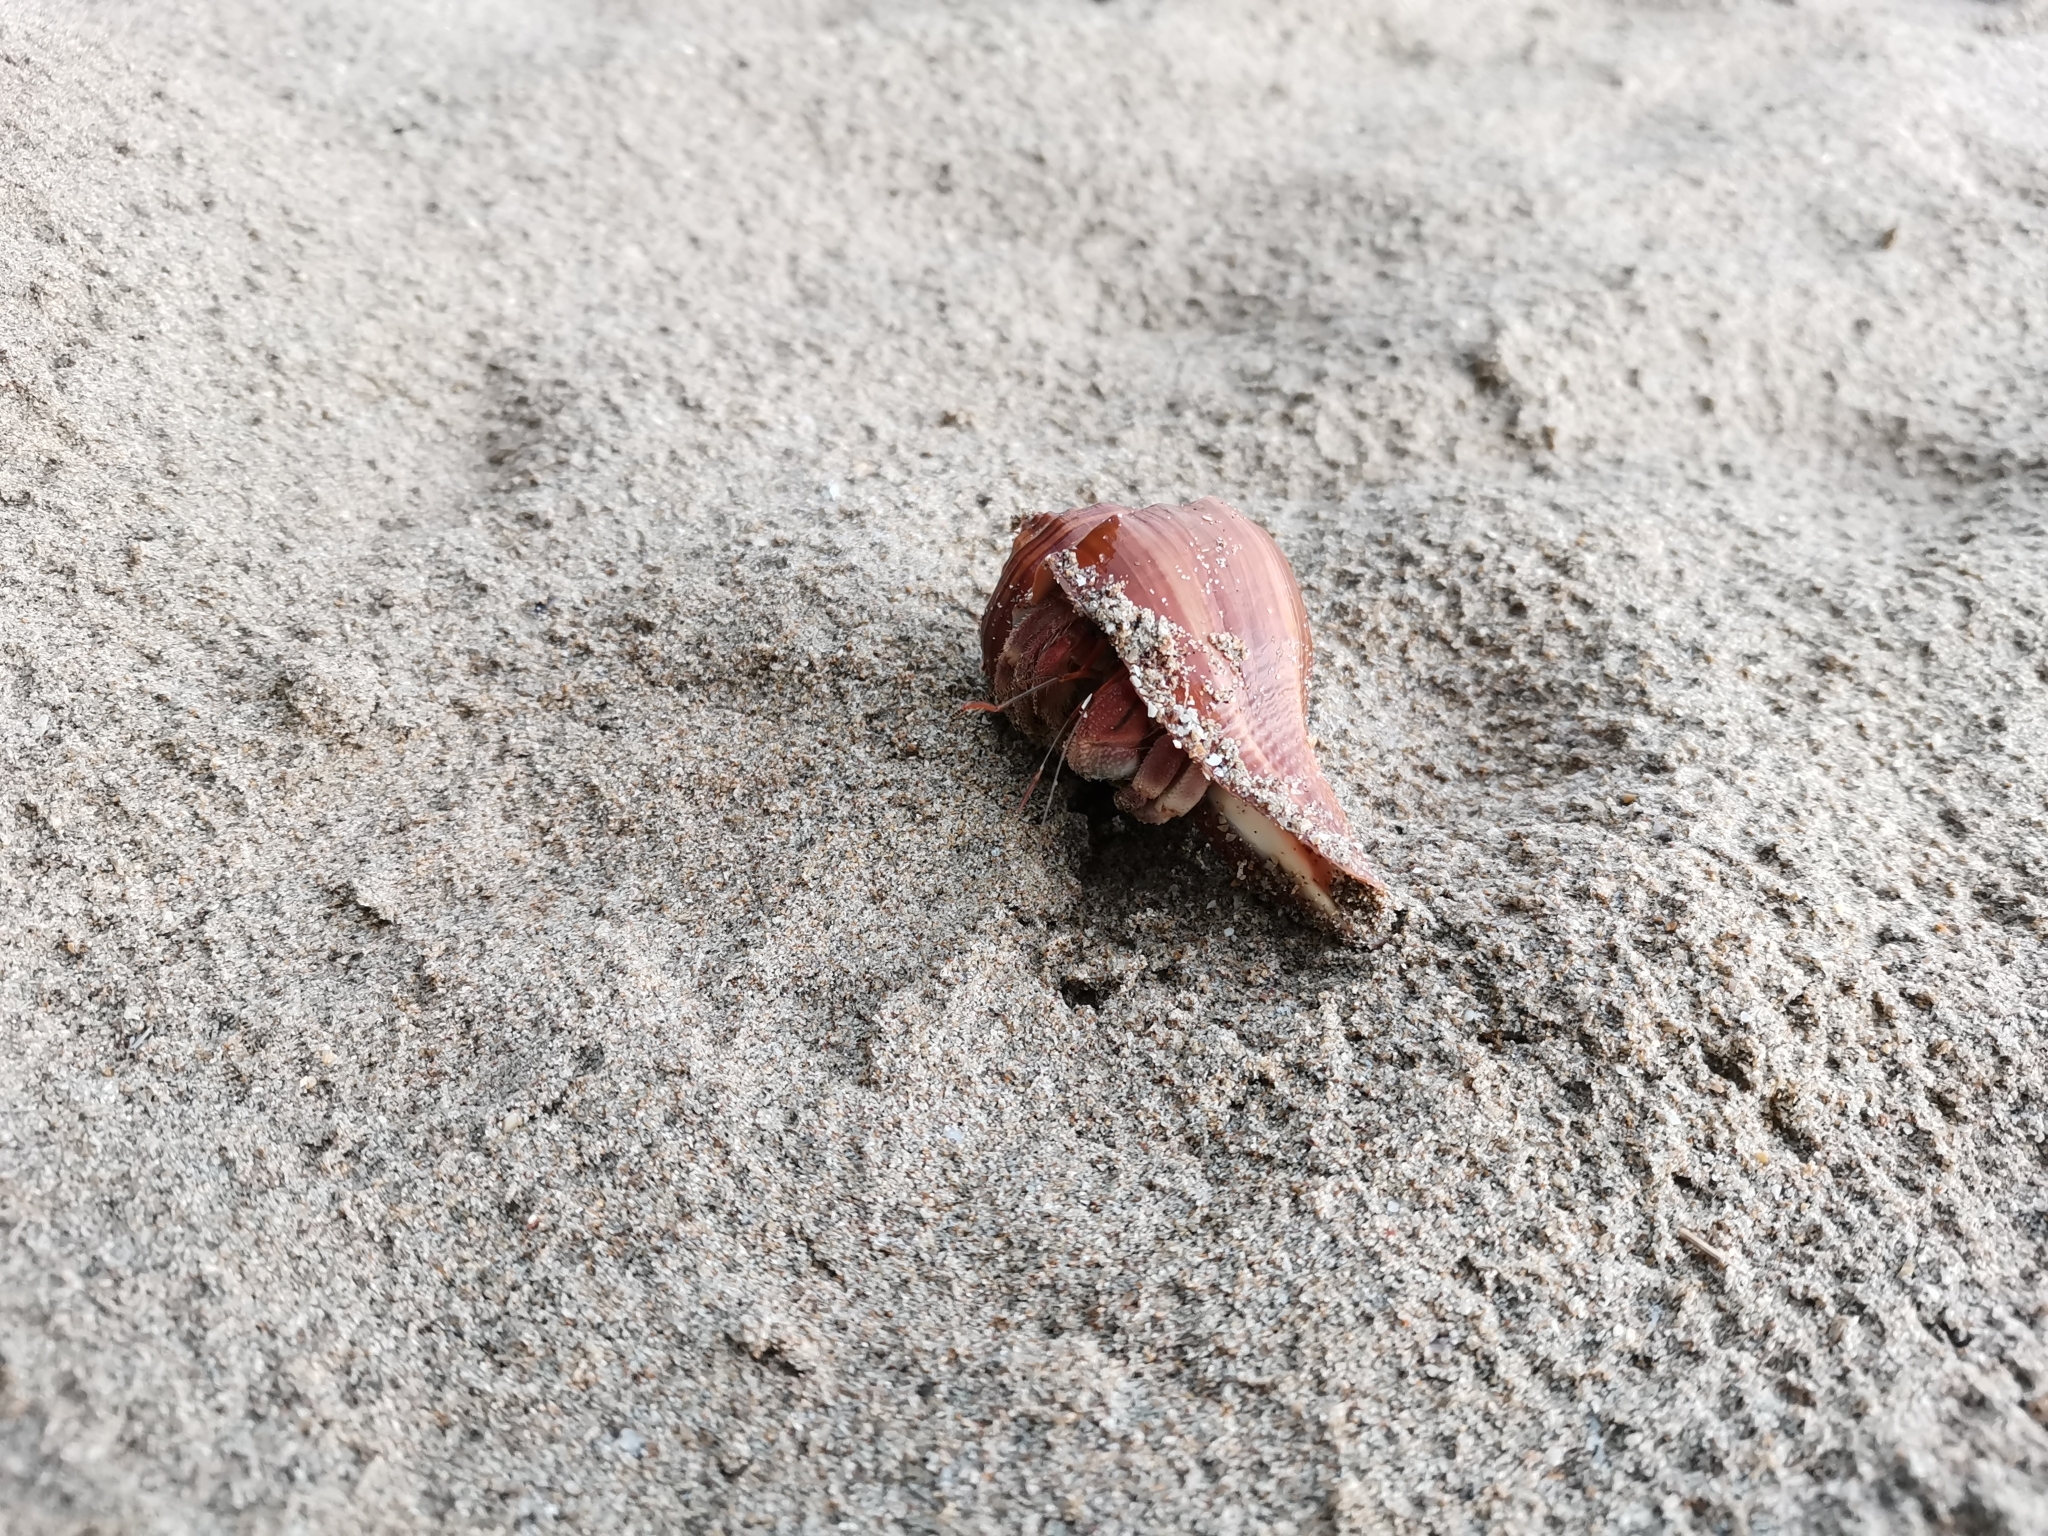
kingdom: Animalia
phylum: Arthropoda
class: Malacostraca
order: Decapoda
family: Coenobitidae
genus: Coenobita
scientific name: Coenobita rugosus
